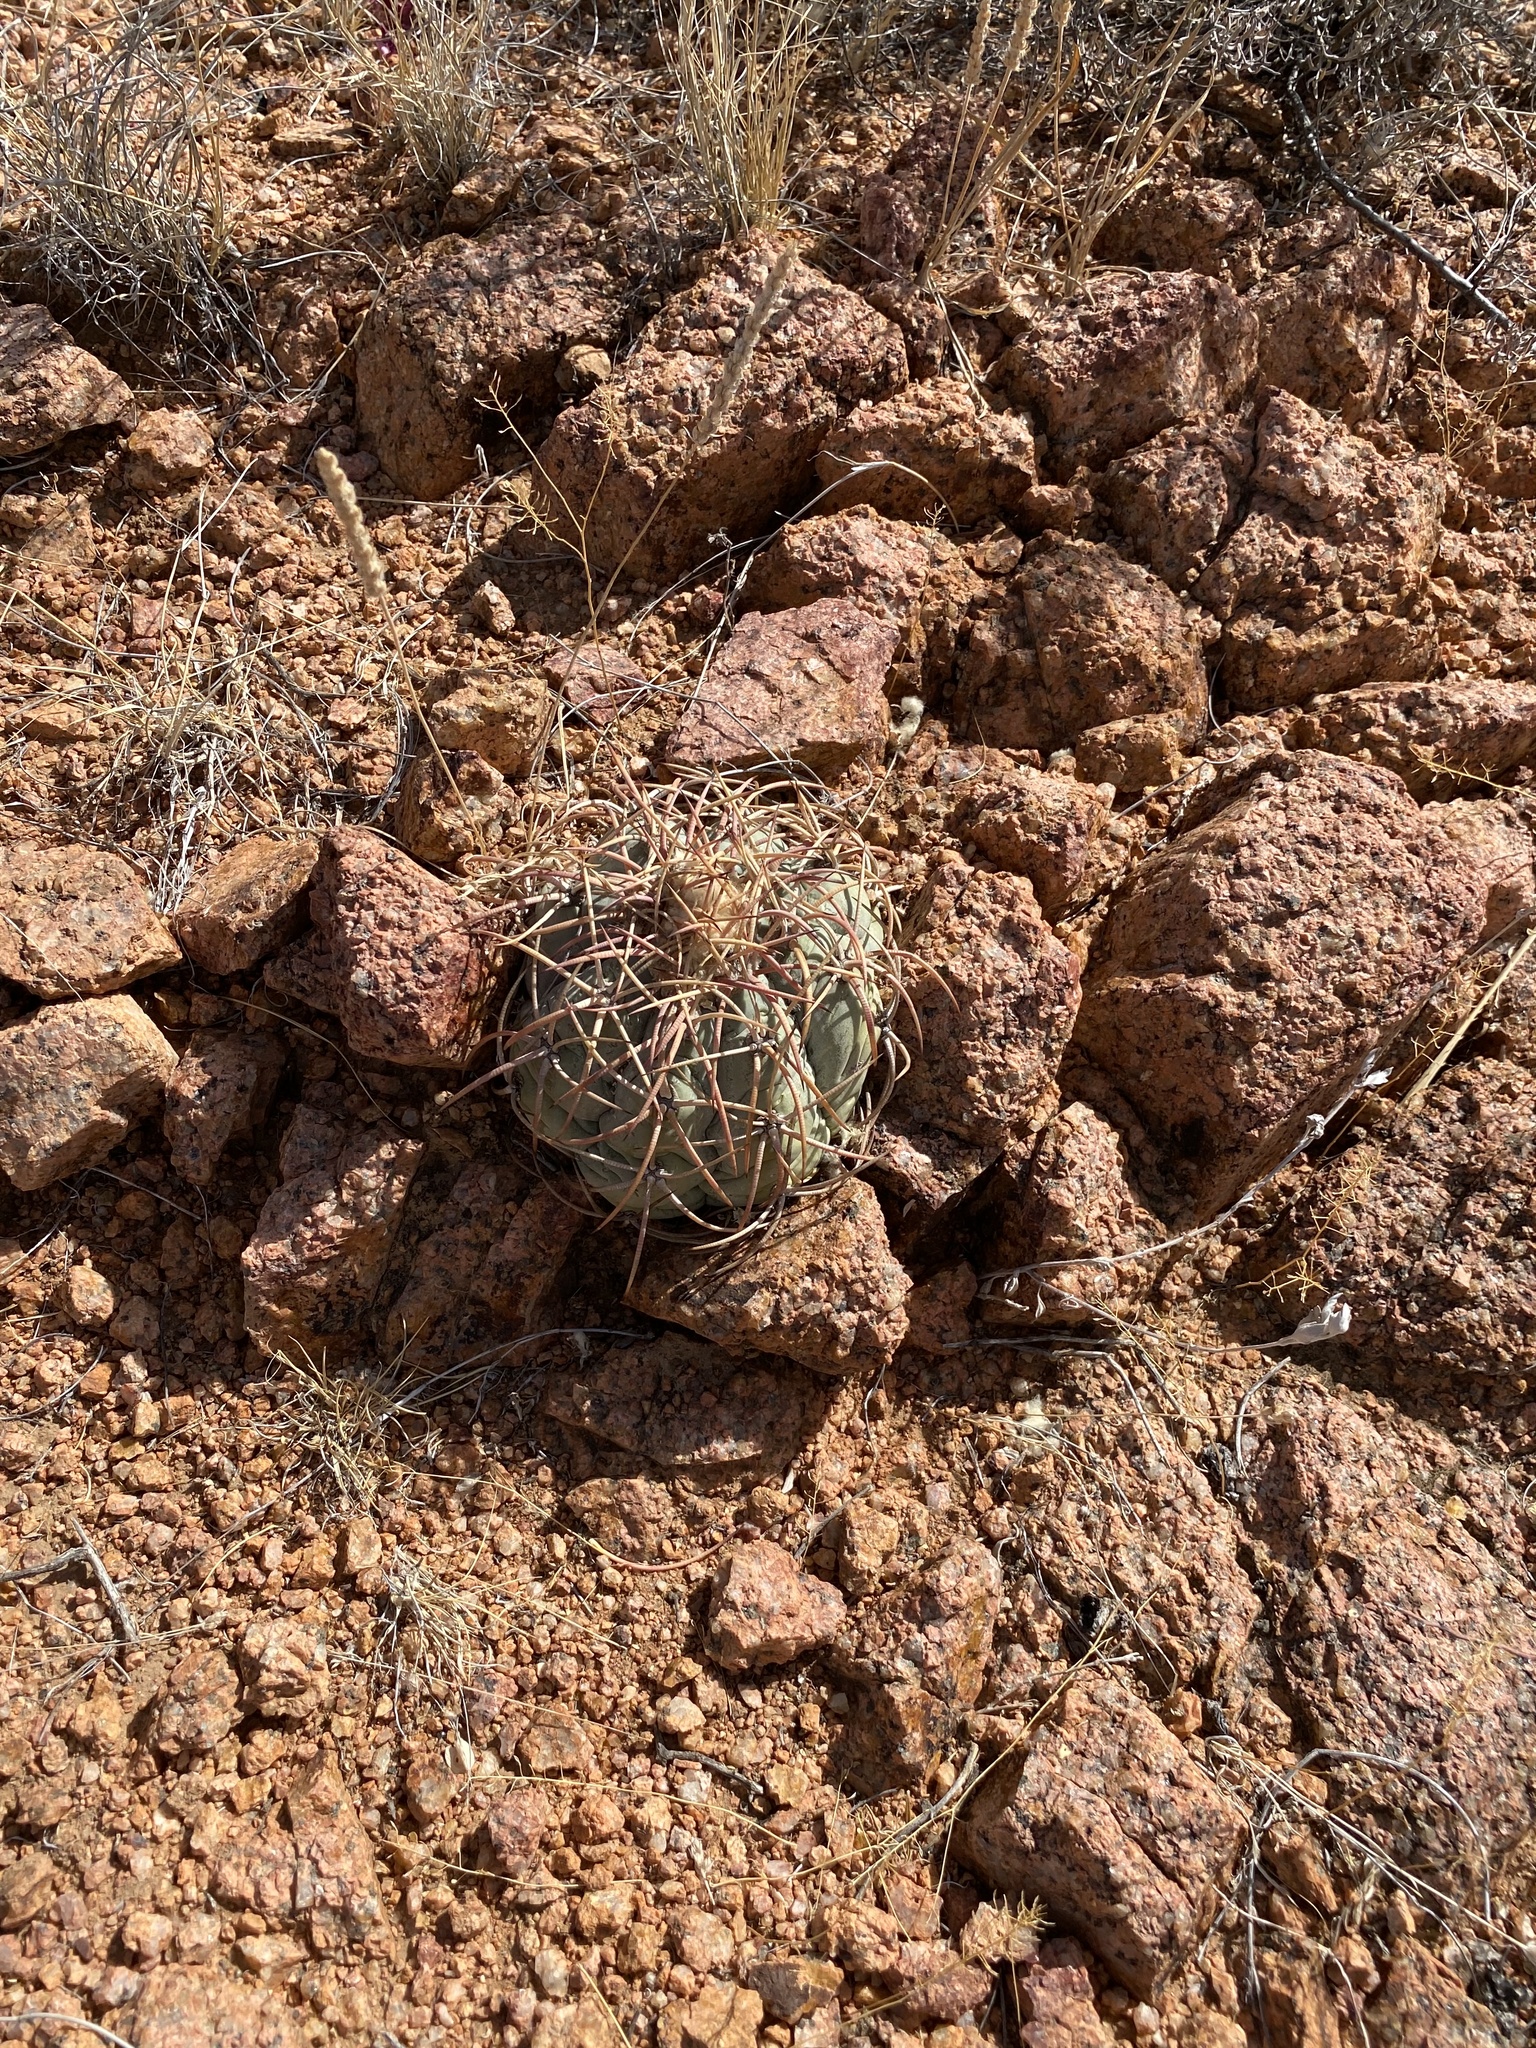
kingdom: Plantae
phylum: Tracheophyta
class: Magnoliopsida
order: Caryophyllales
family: Cactaceae
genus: Echinocactus
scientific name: Echinocactus horizonthalonius
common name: Devilshead
